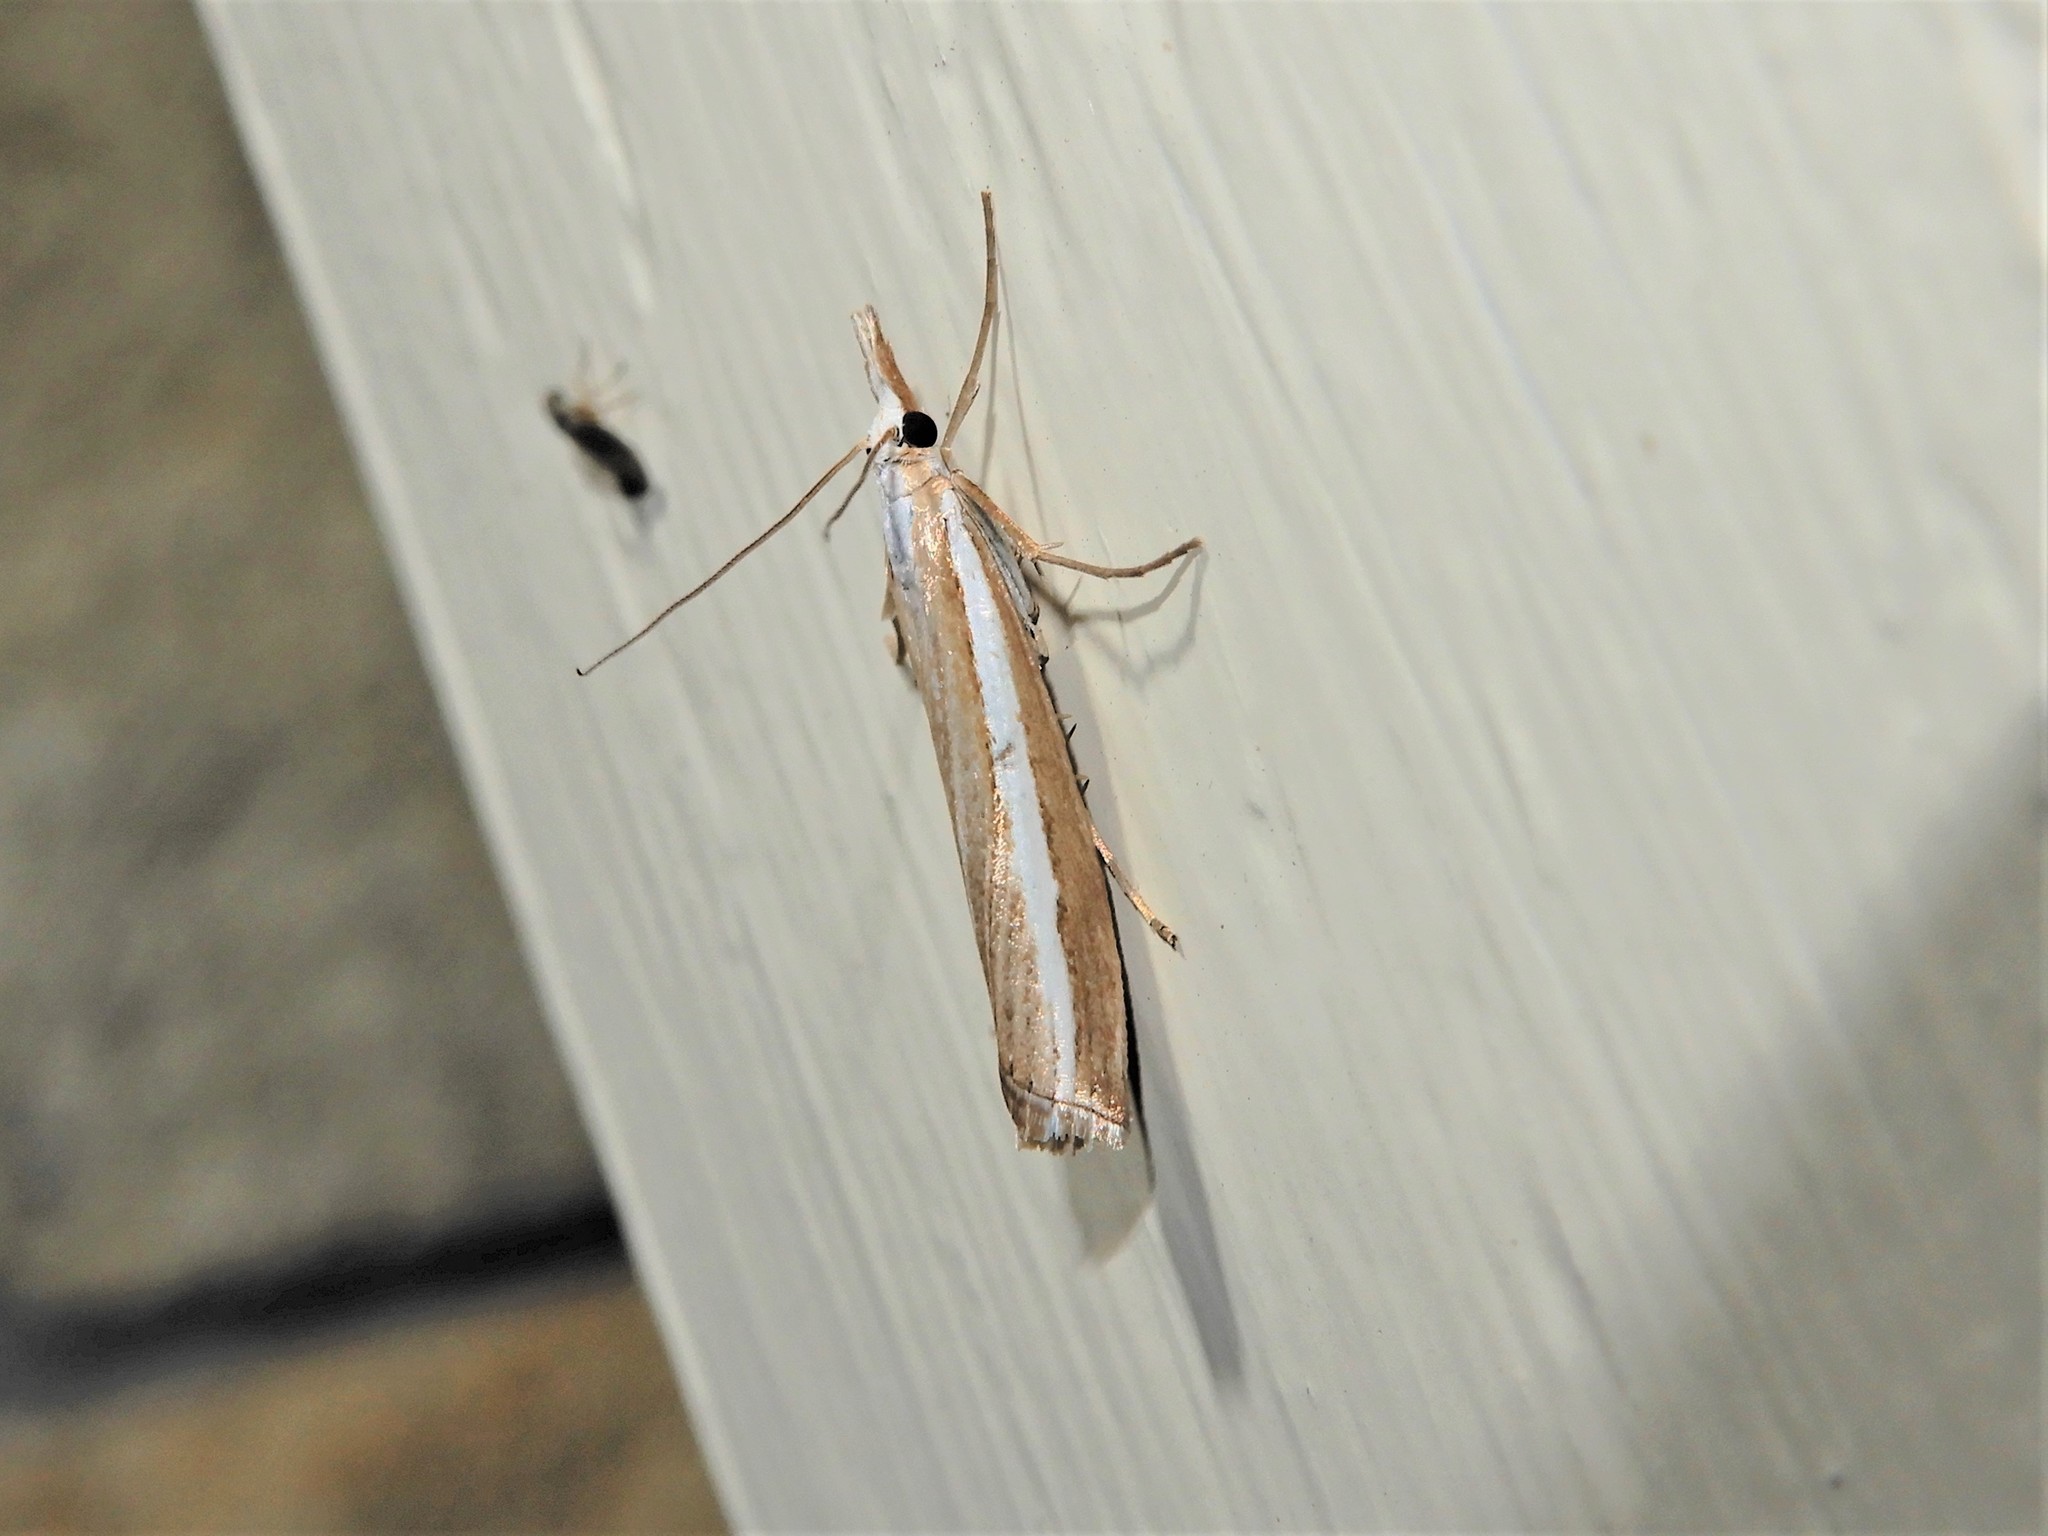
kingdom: Animalia
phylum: Arthropoda
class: Insecta
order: Lepidoptera
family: Crambidae
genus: Orocrambus
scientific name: Orocrambus vittellus
